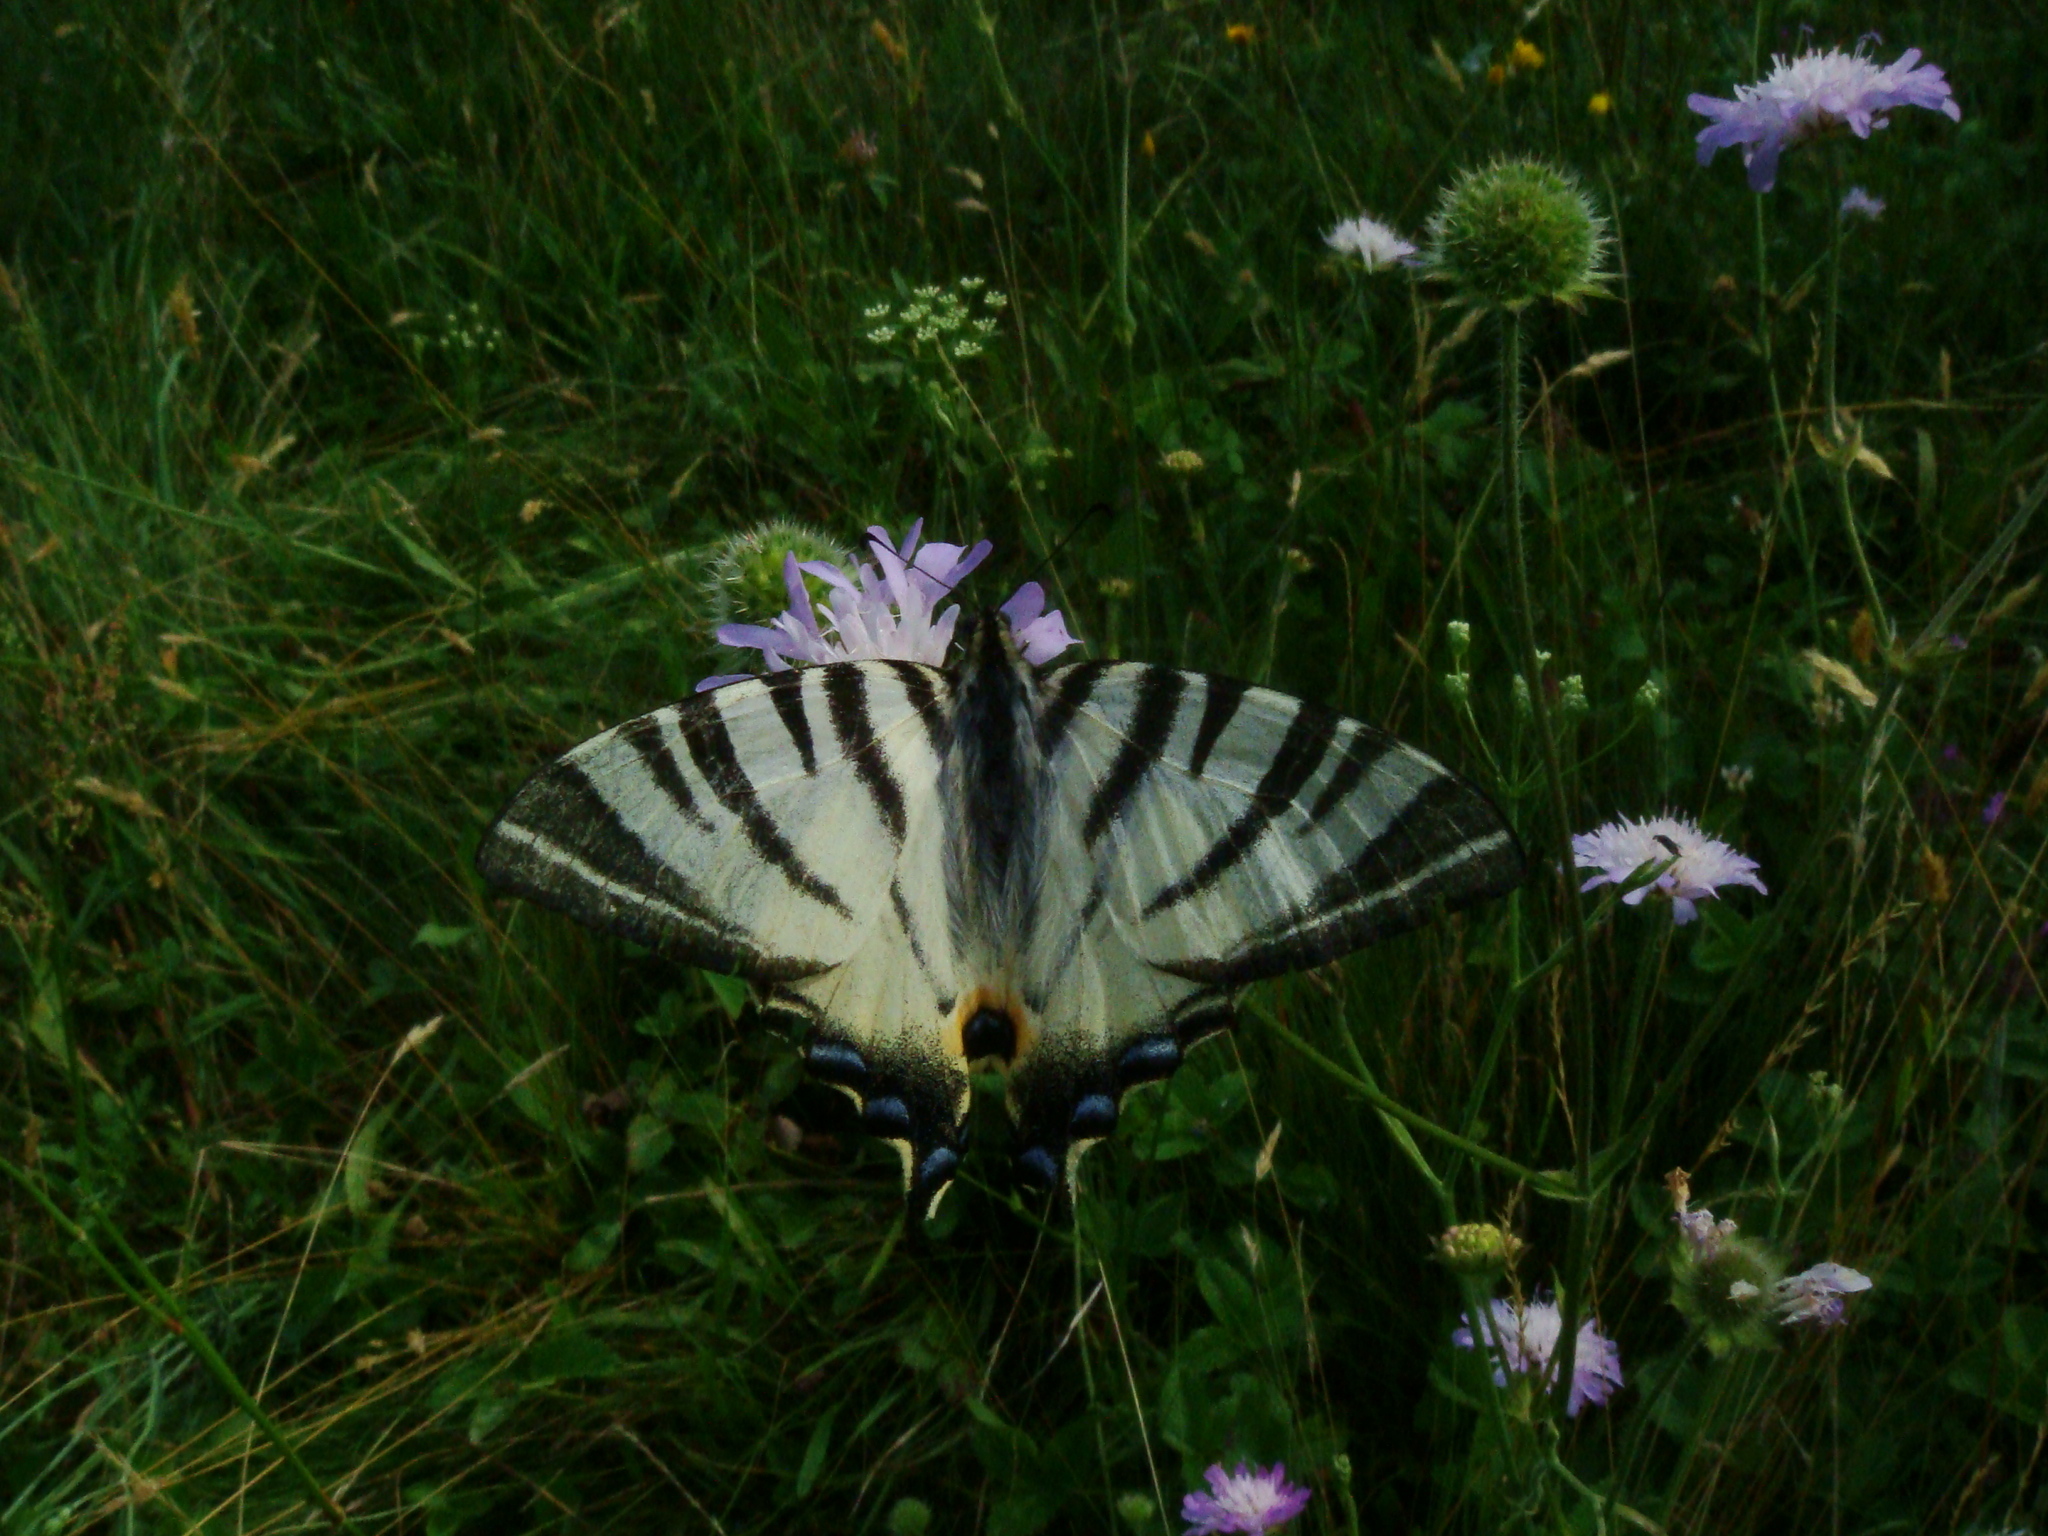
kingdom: Animalia
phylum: Arthropoda
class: Insecta
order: Lepidoptera
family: Papilionidae
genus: Iphiclides
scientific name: Iphiclides podalirius
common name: Scarce swallowtail
